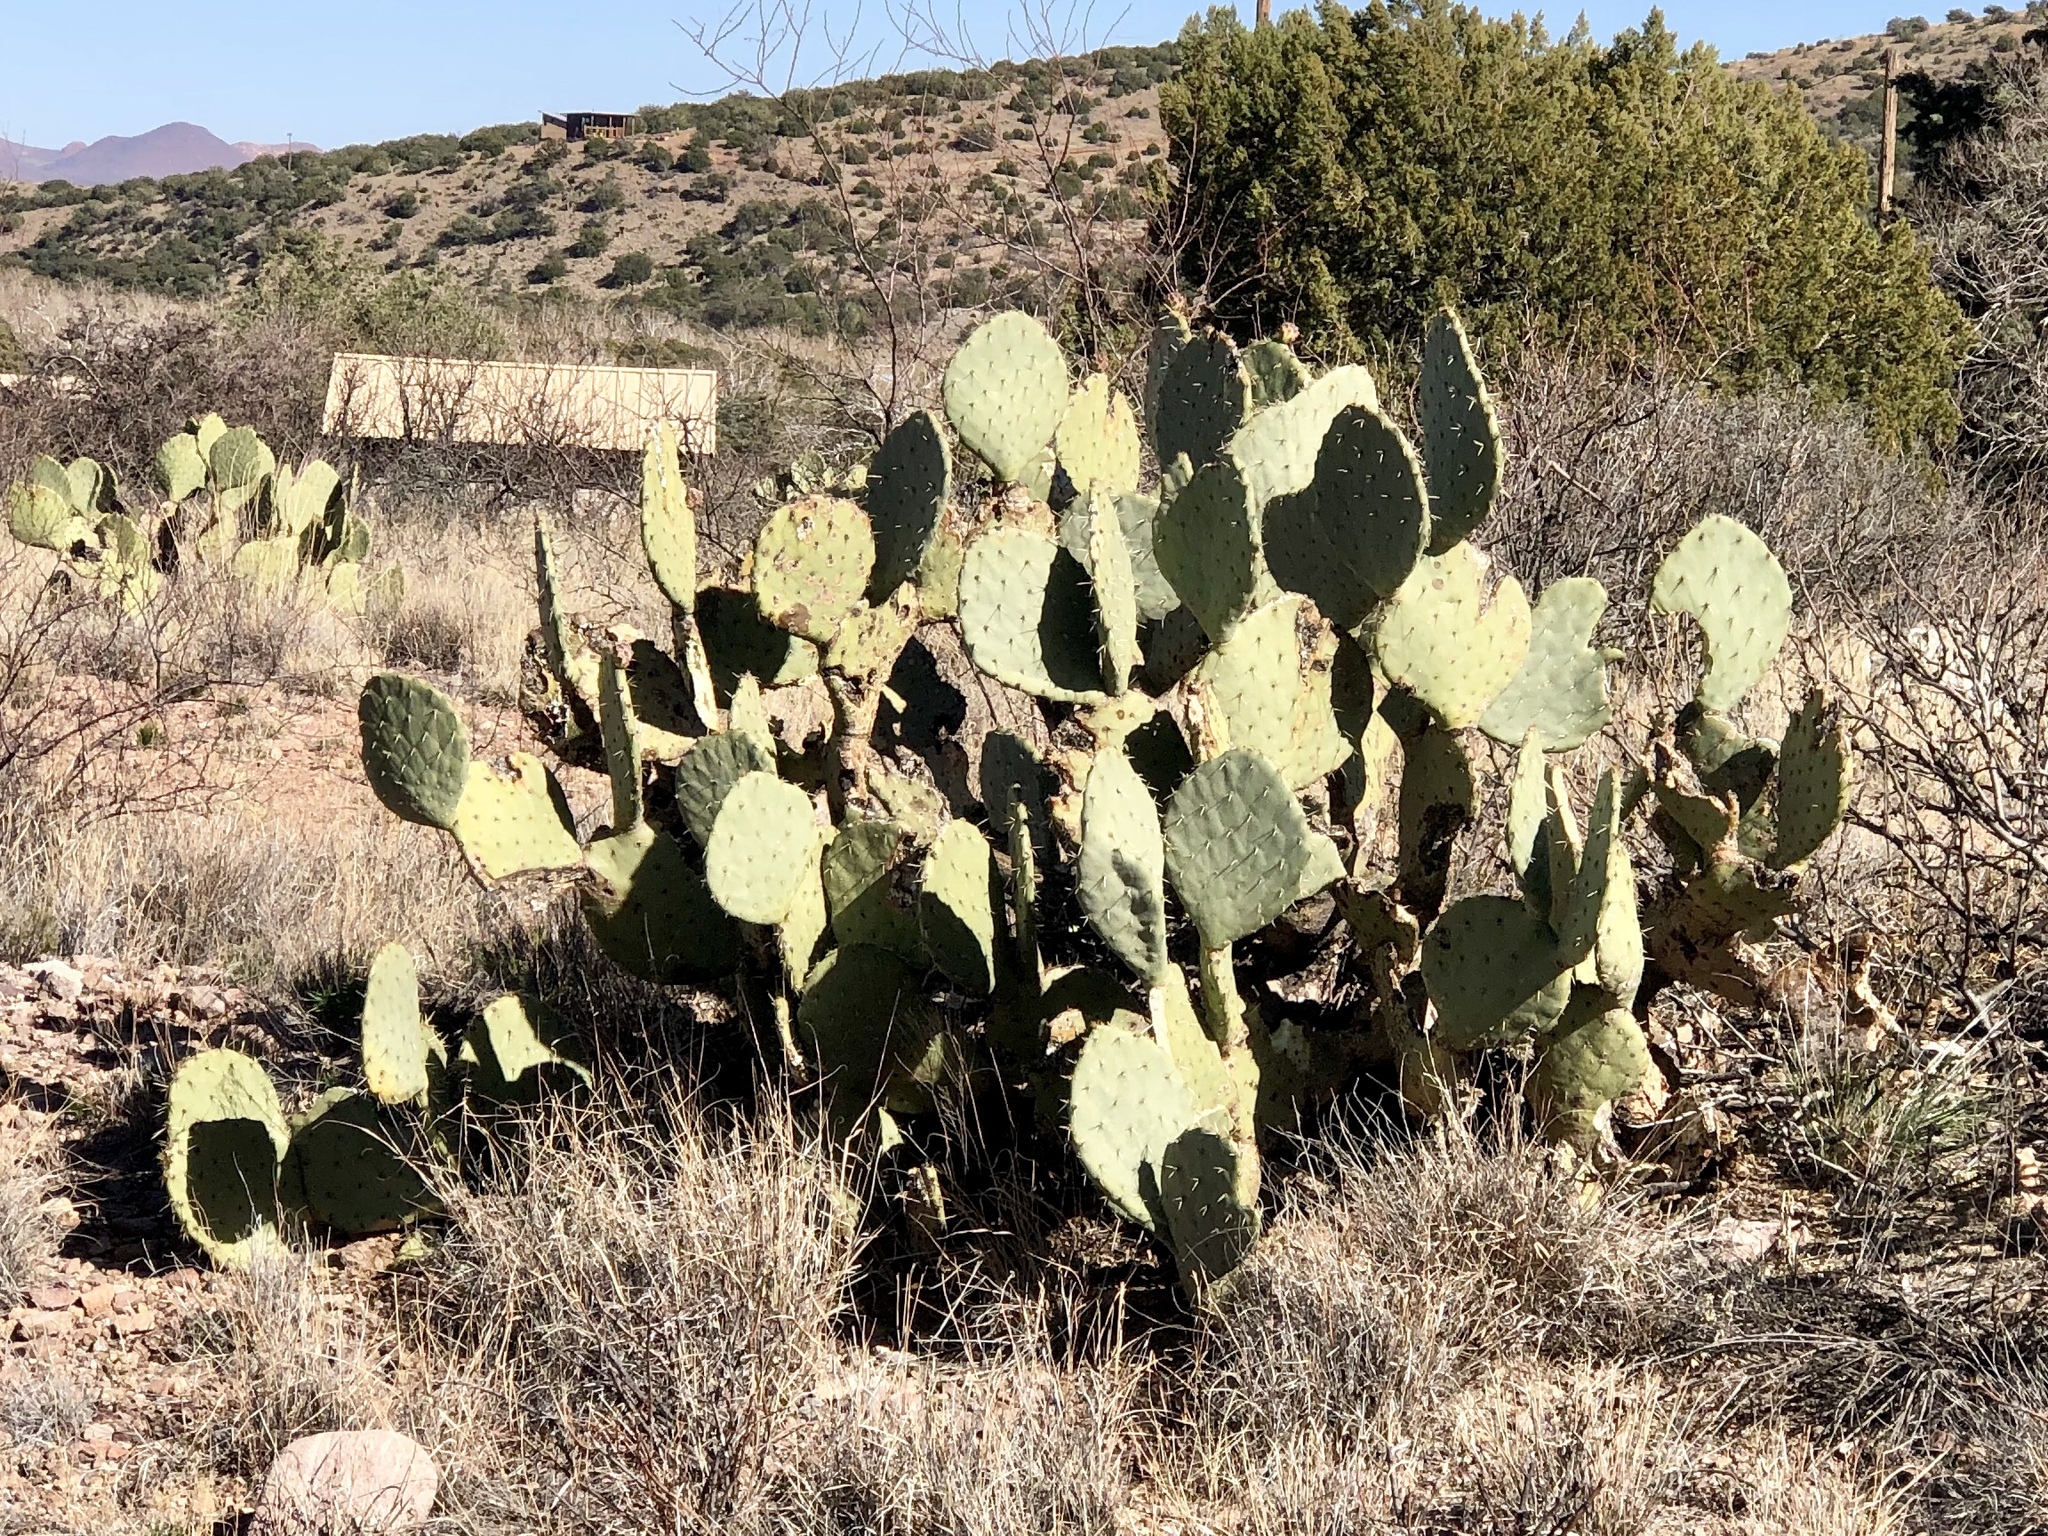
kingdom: Plantae
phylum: Tracheophyta
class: Magnoliopsida
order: Caryophyllales
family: Cactaceae
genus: Opuntia
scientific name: Opuntia orbiculata
